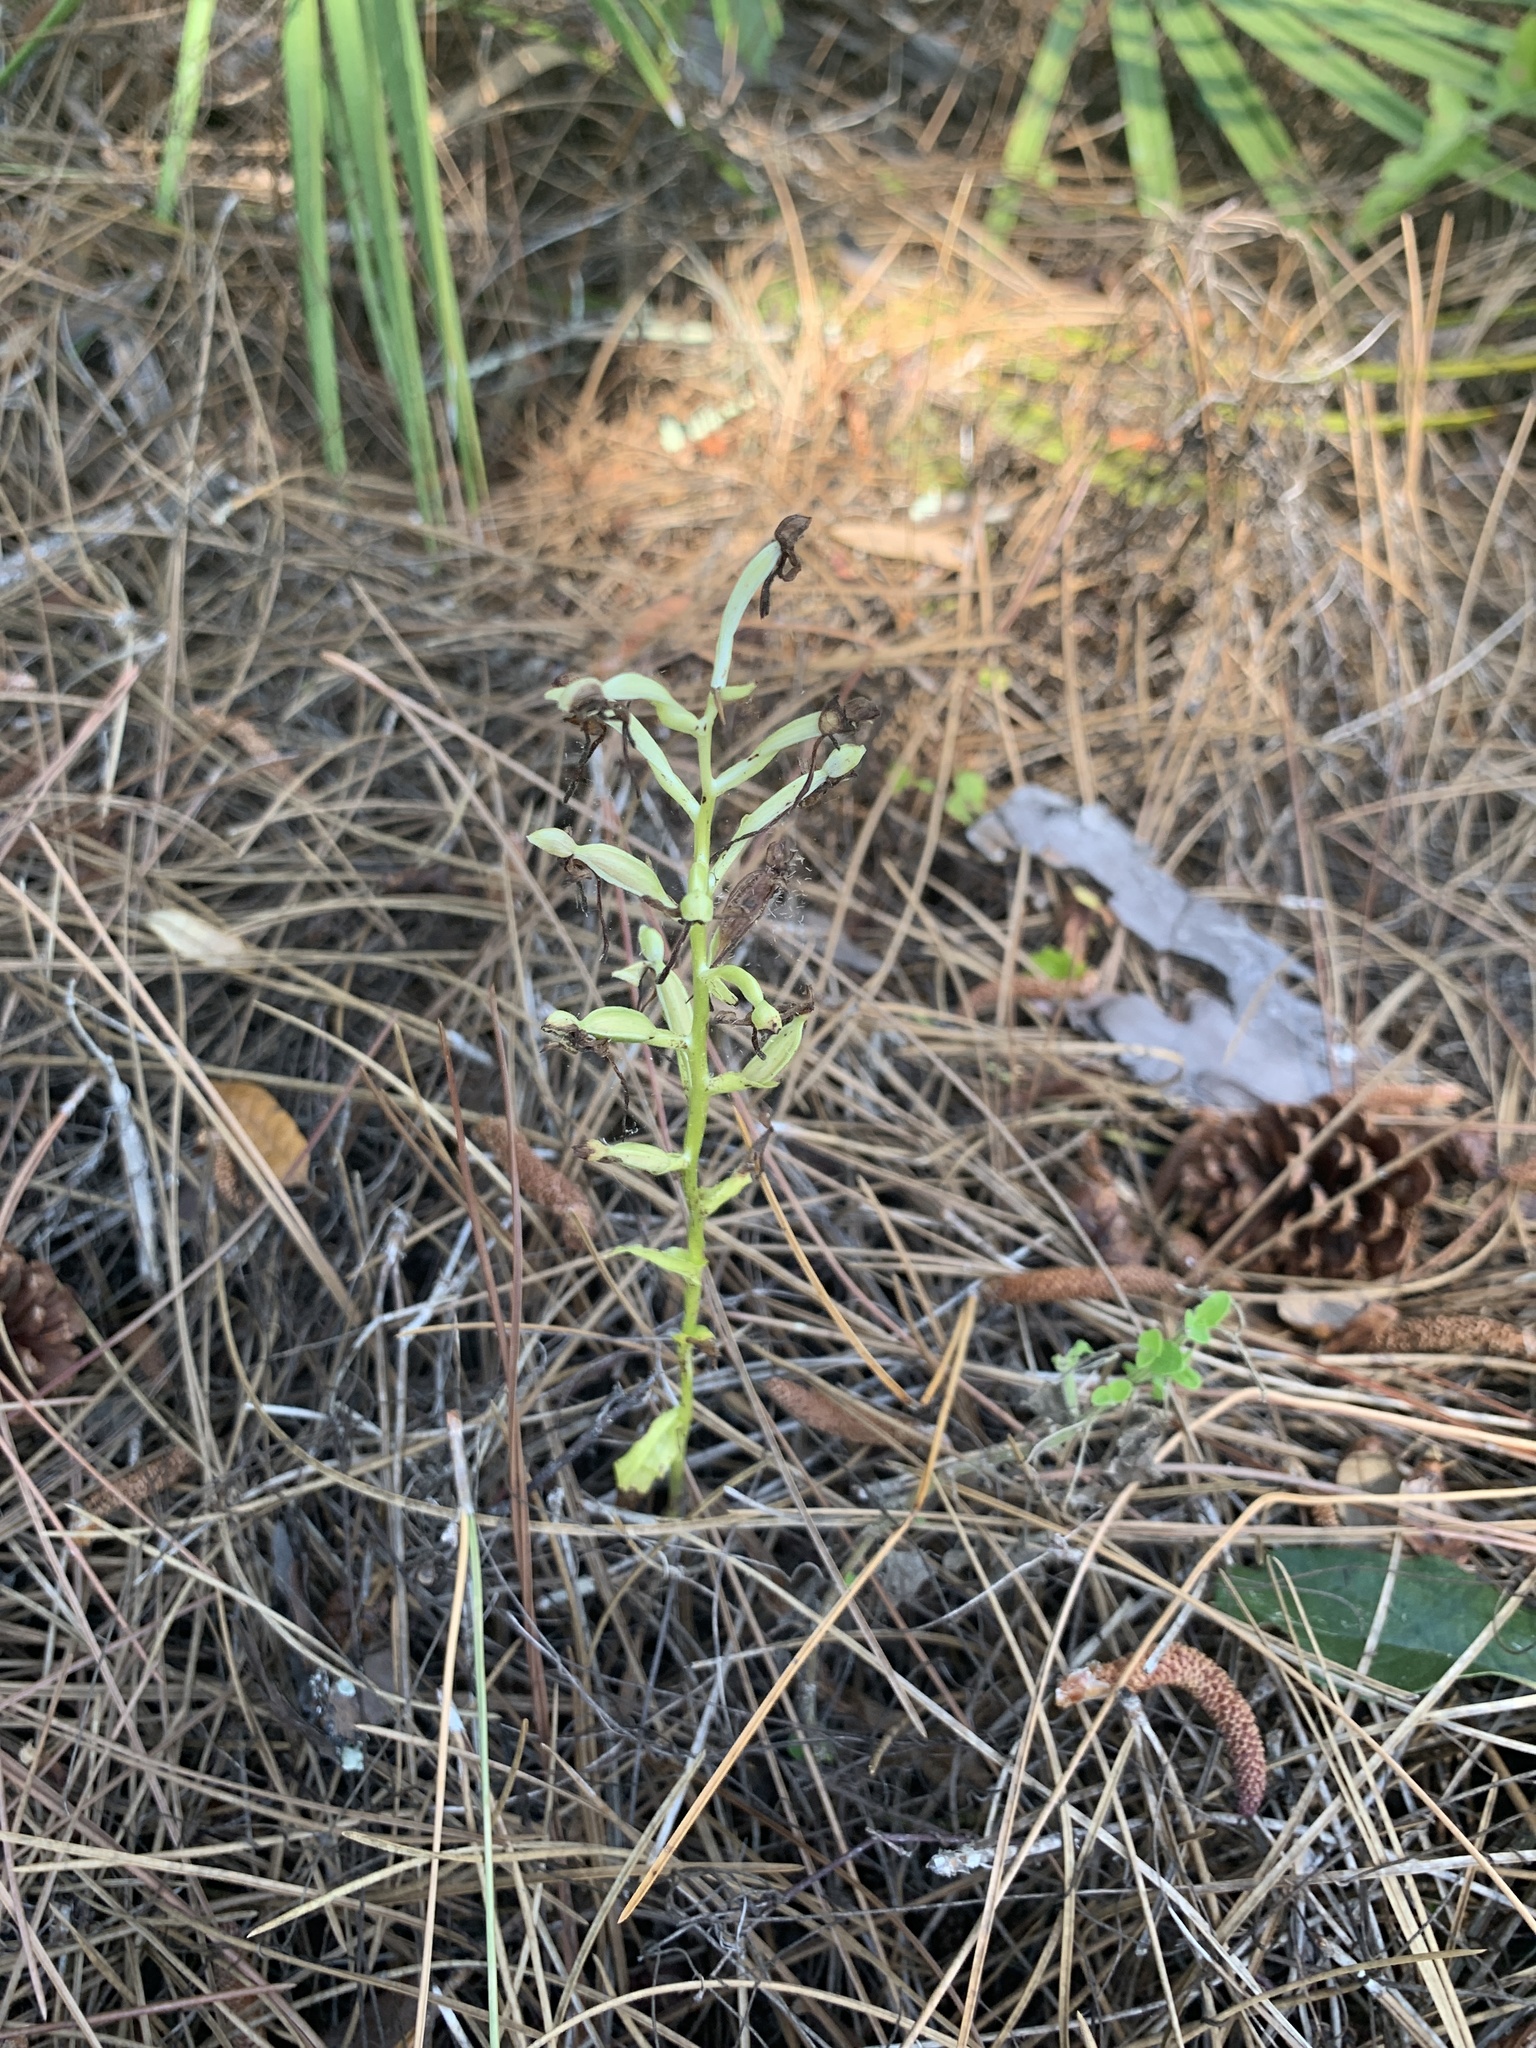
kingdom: Plantae
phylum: Tracheophyta
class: Liliopsida
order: Asparagales
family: Orchidaceae
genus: Habenaria
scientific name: Habenaria floribunda
